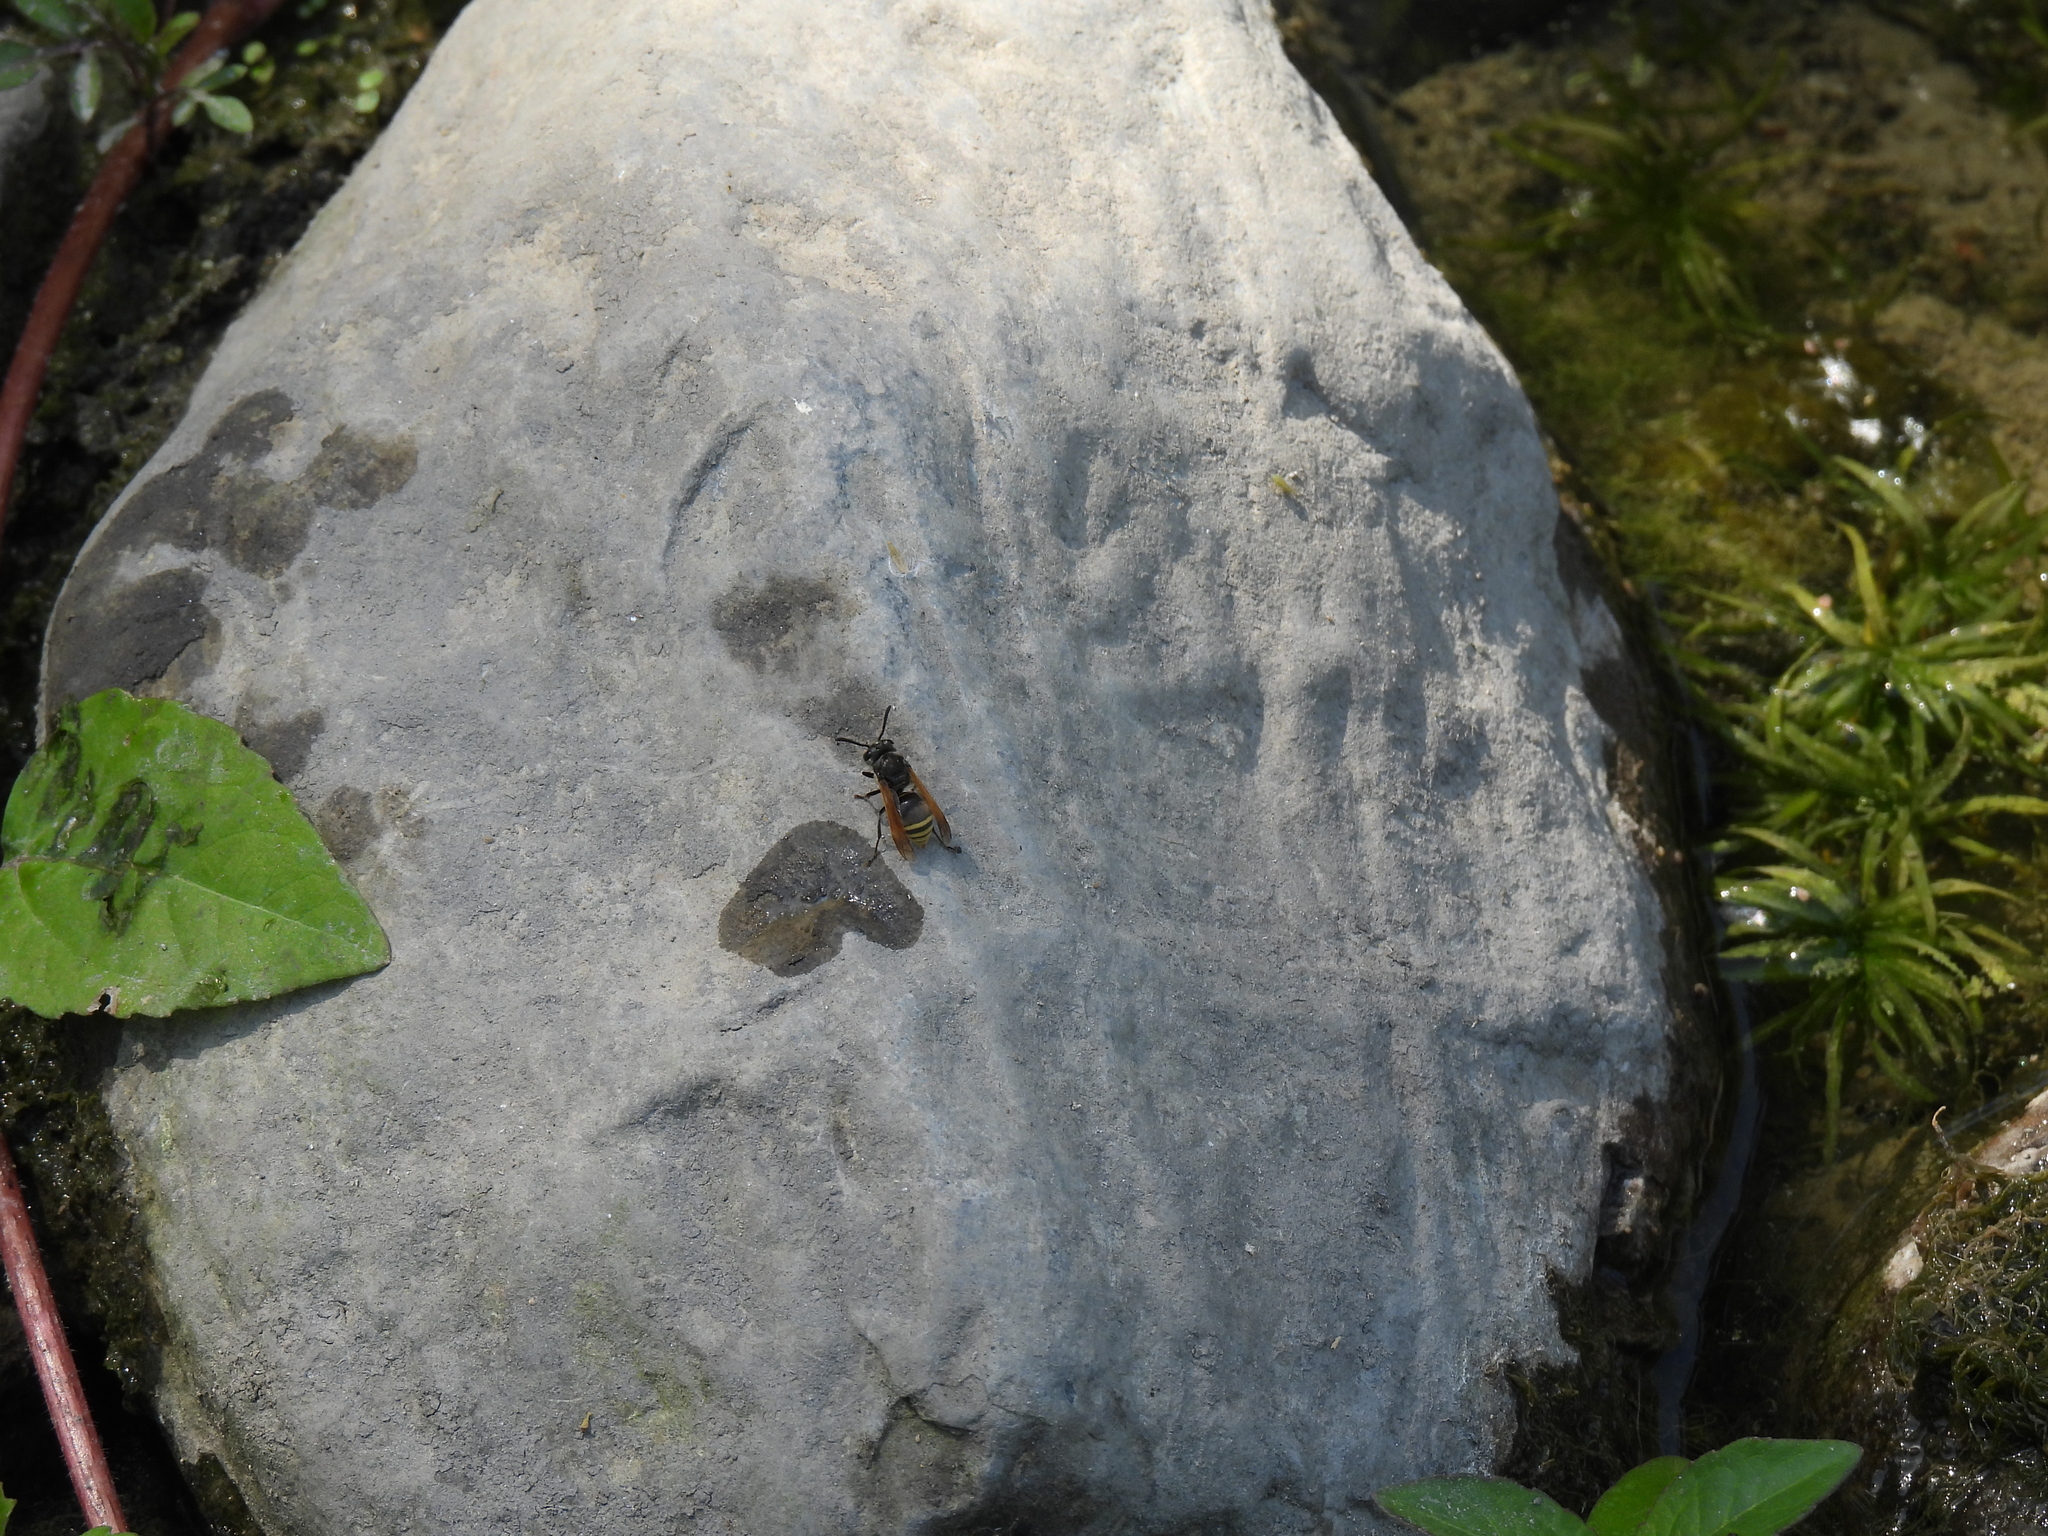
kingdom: Animalia
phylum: Arthropoda
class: Insecta
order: Hymenoptera
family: Vespidae
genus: Brachygastra
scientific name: Brachygastra mellifica
